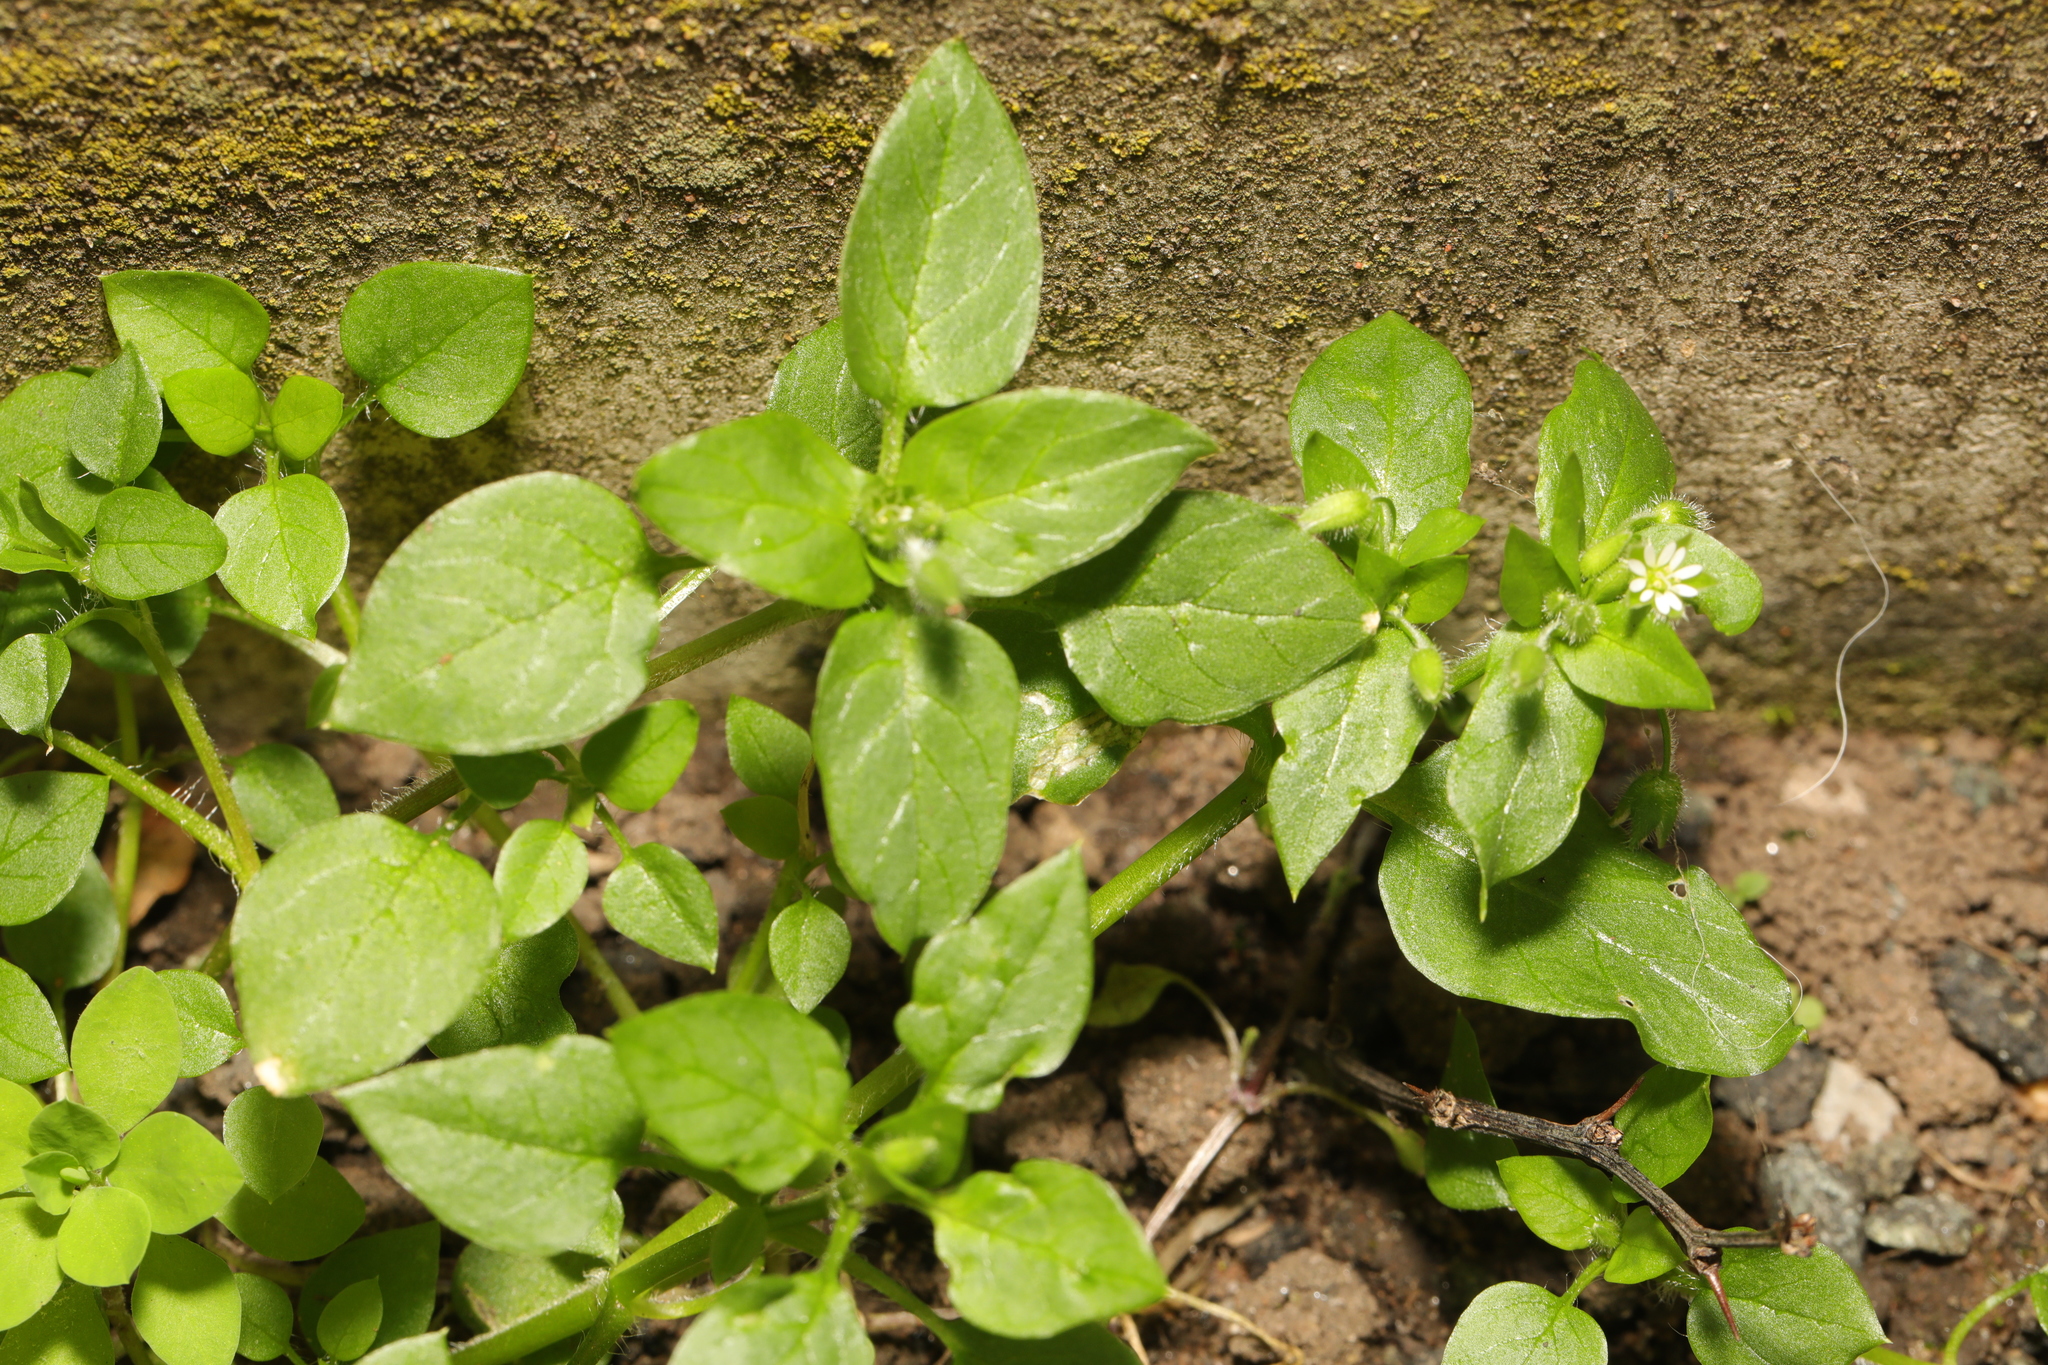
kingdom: Plantae
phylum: Tracheophyta
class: Magnoliopsida
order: Caryophyllales
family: Caryophyllaceae
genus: Stellaria
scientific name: Stellaria media
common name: Common chickweed
